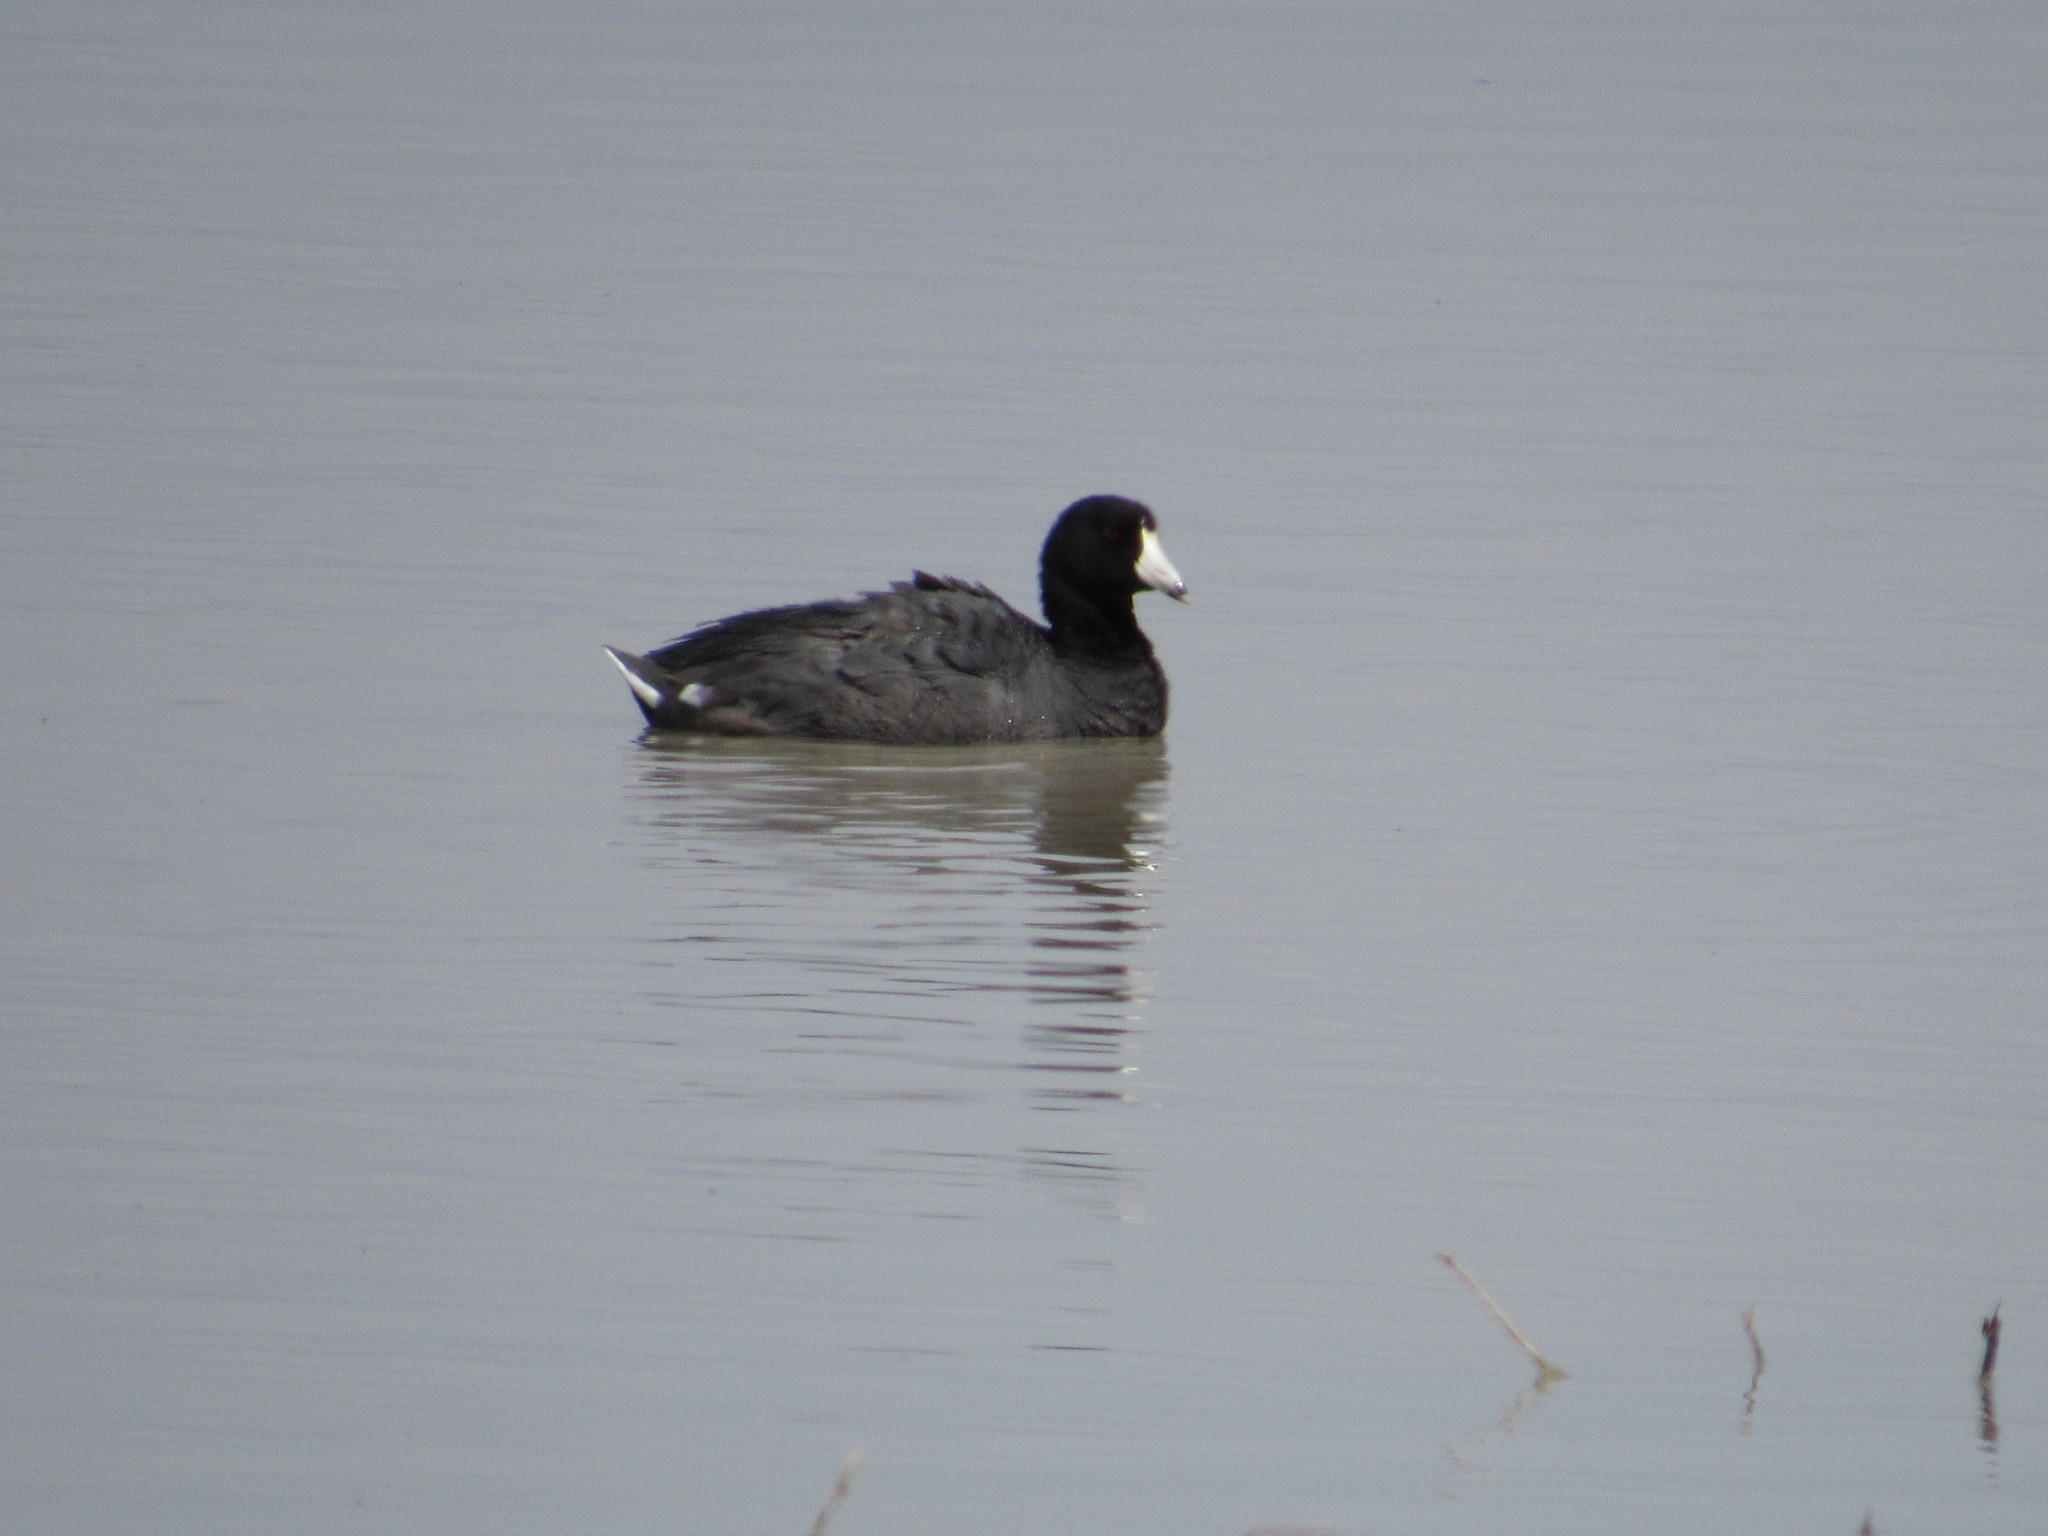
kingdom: Animalia
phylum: Chordata
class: Aves
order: Gruiformes
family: Rallidae
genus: Fulica
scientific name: Fulica americana
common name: American coot
